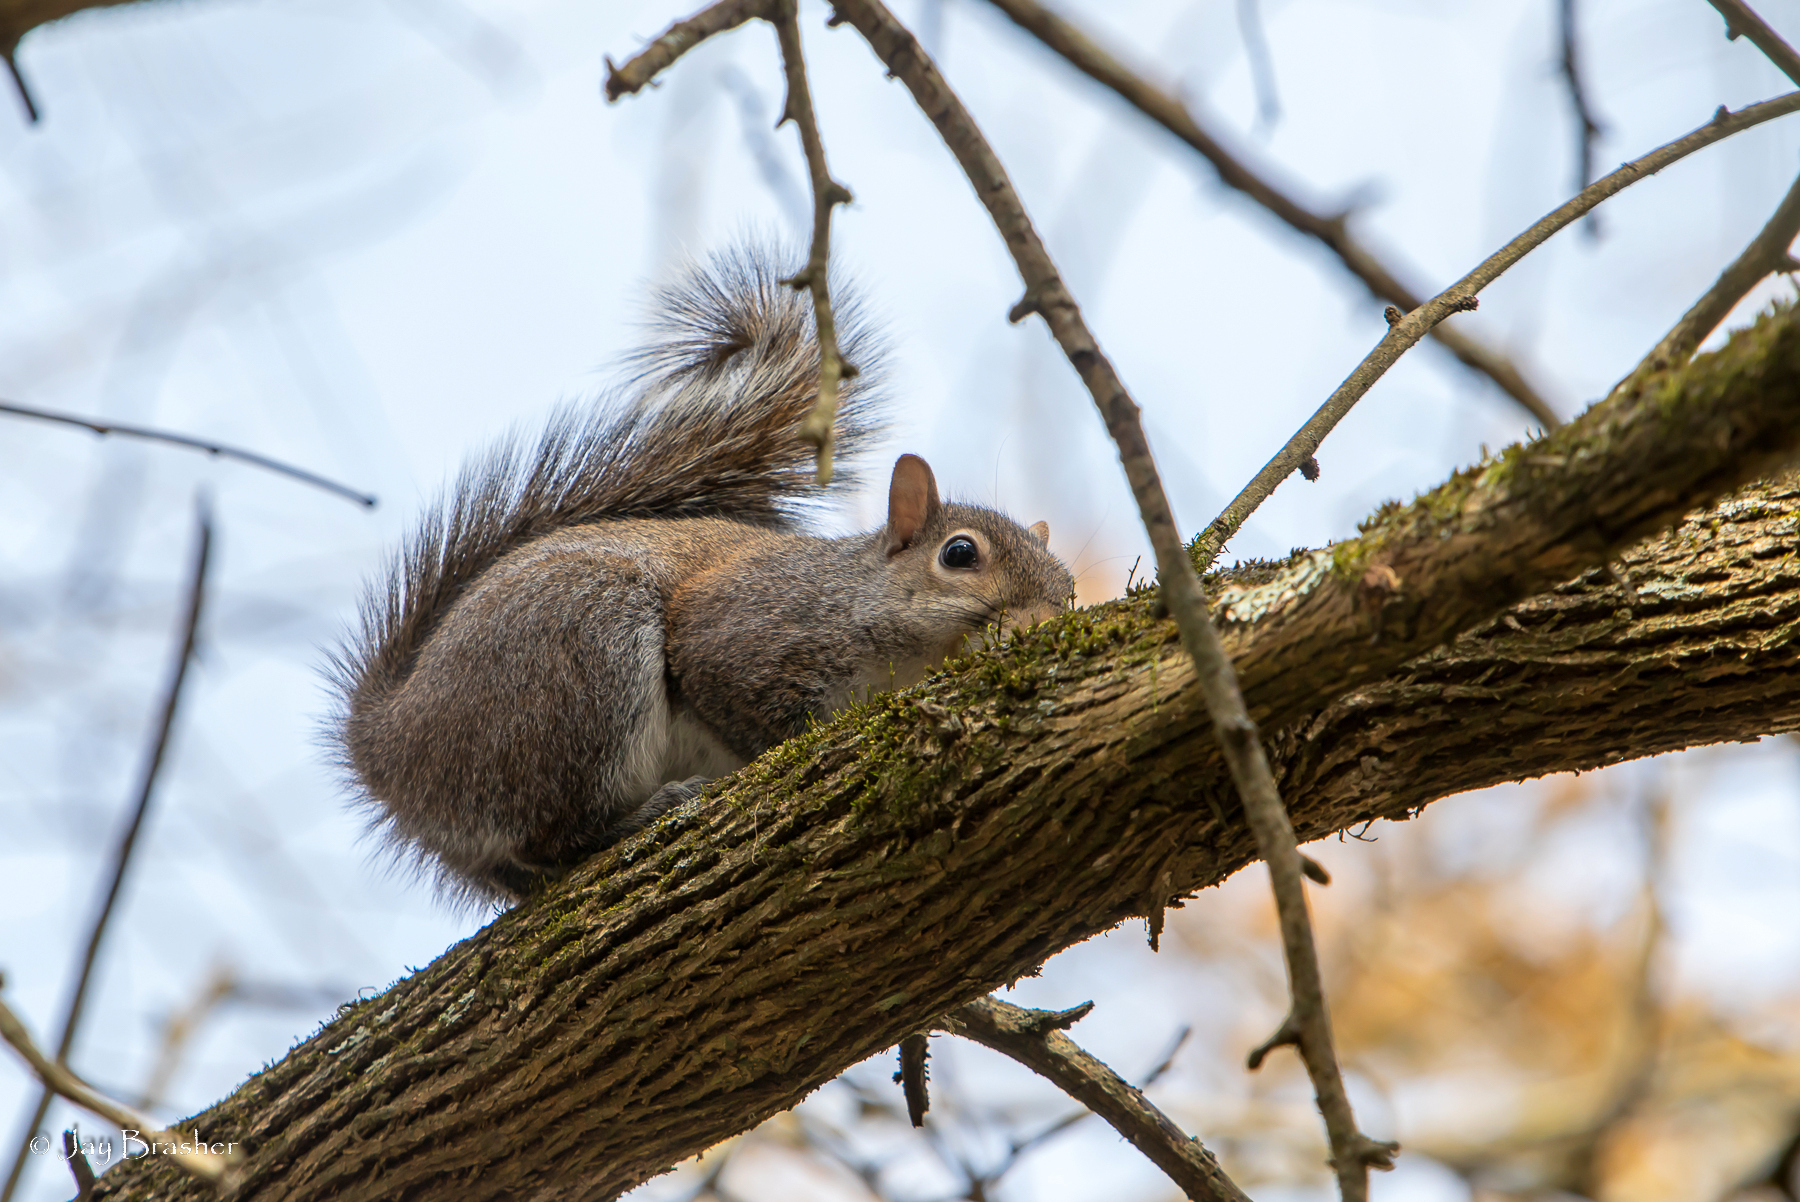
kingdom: Animalia
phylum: Chordata
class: Mammalia
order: Rodentia
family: Sciuridae
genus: Sciurus
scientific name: Sciurus carolinensis
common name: Eastern gray squirrel
